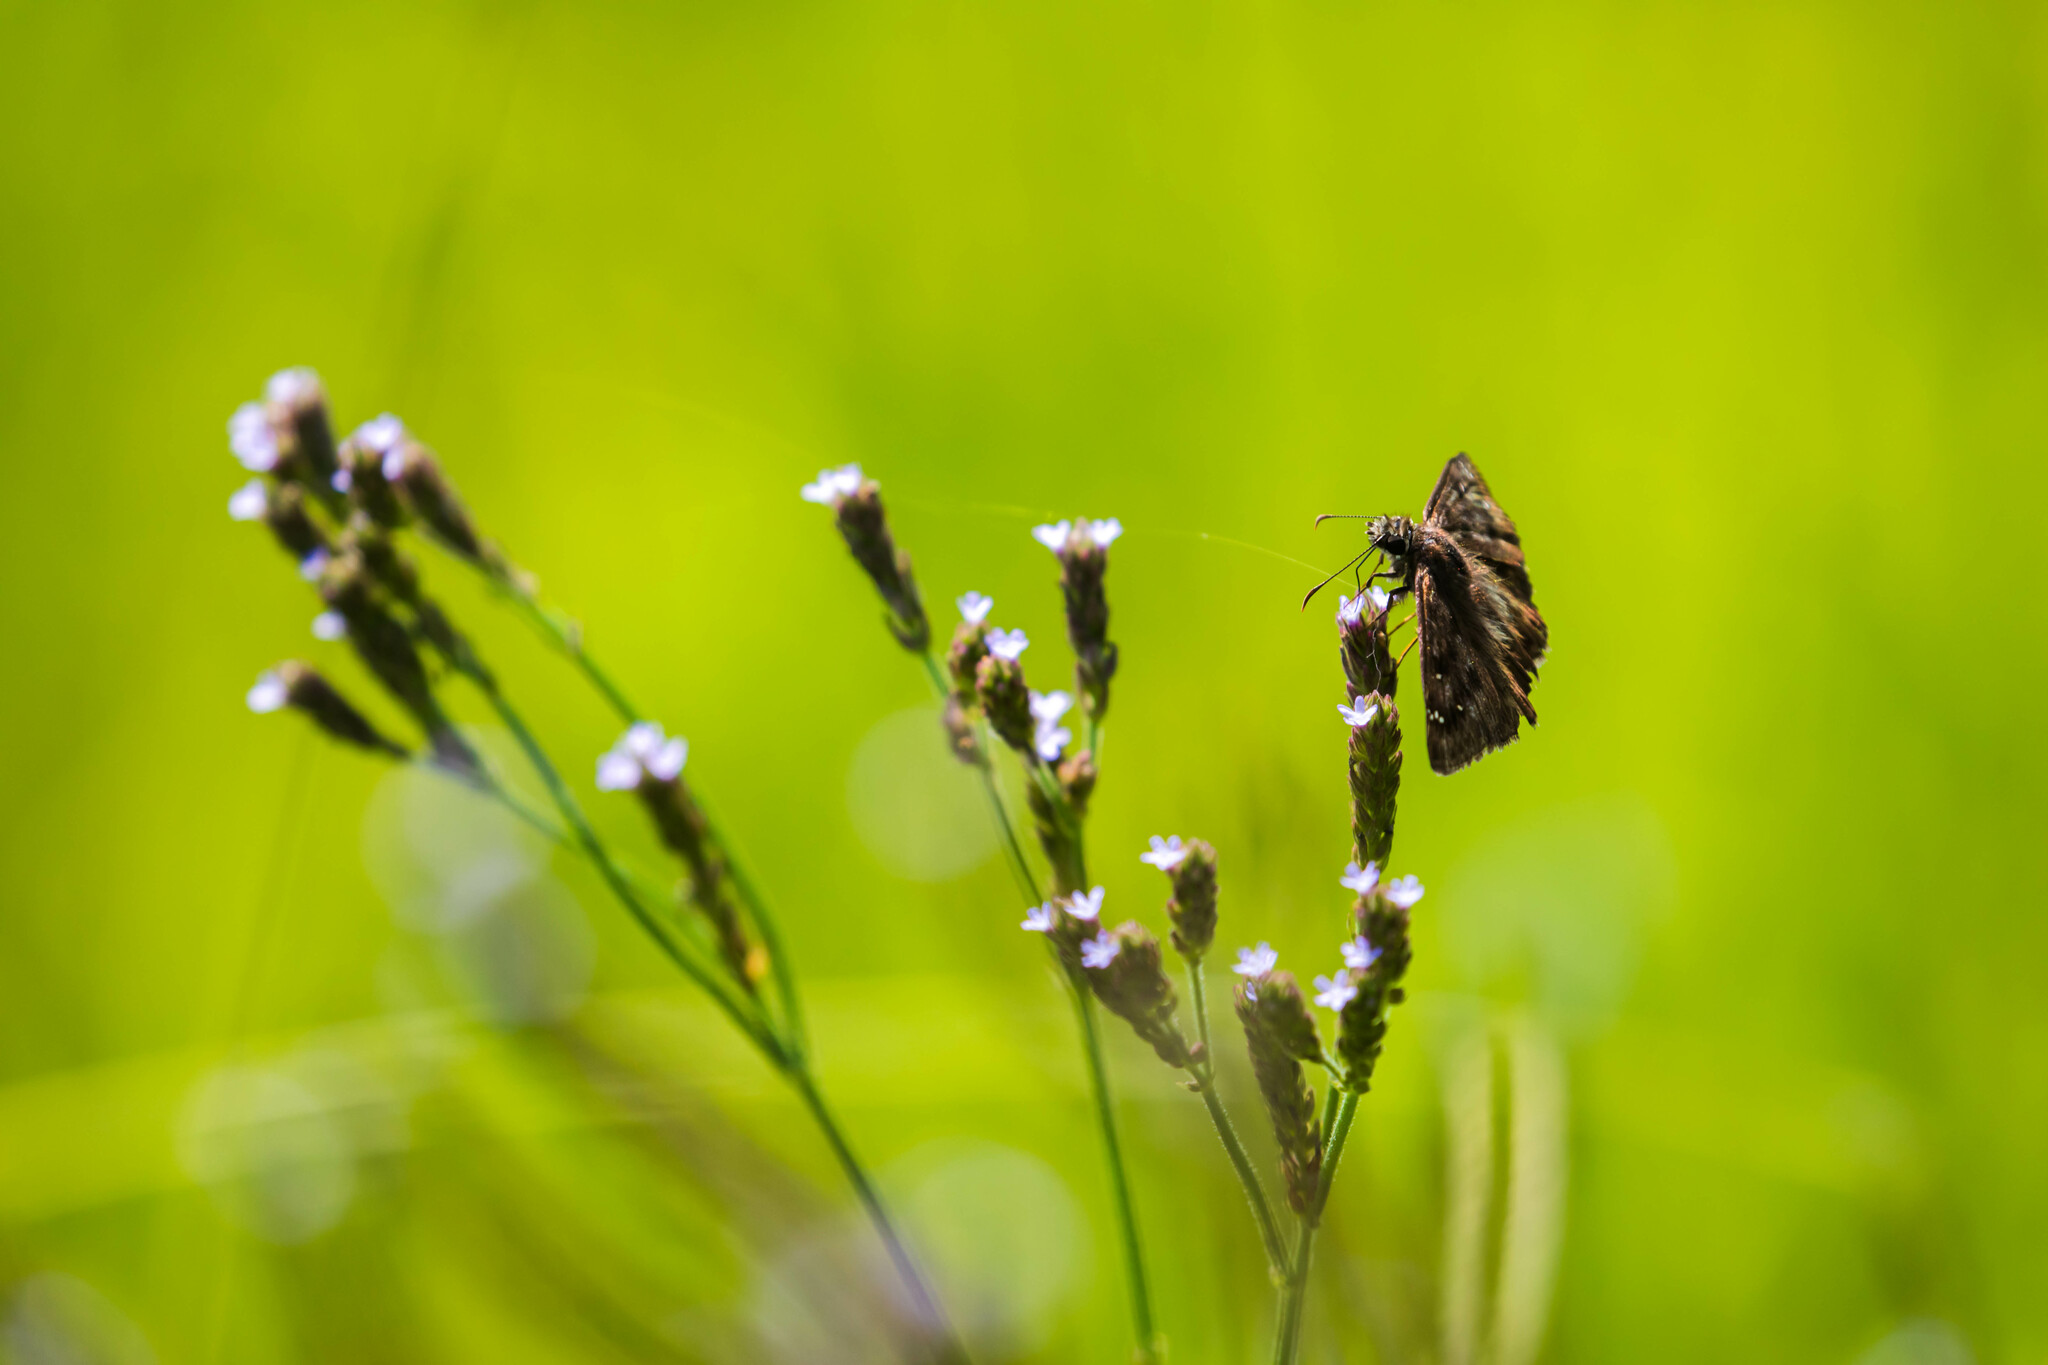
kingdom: Animalia
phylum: Arthropoda
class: Insecta
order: Lepidoptera
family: Hesperiidae
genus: Erynnis
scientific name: Erynnis horatius
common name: Horace's duskywing
